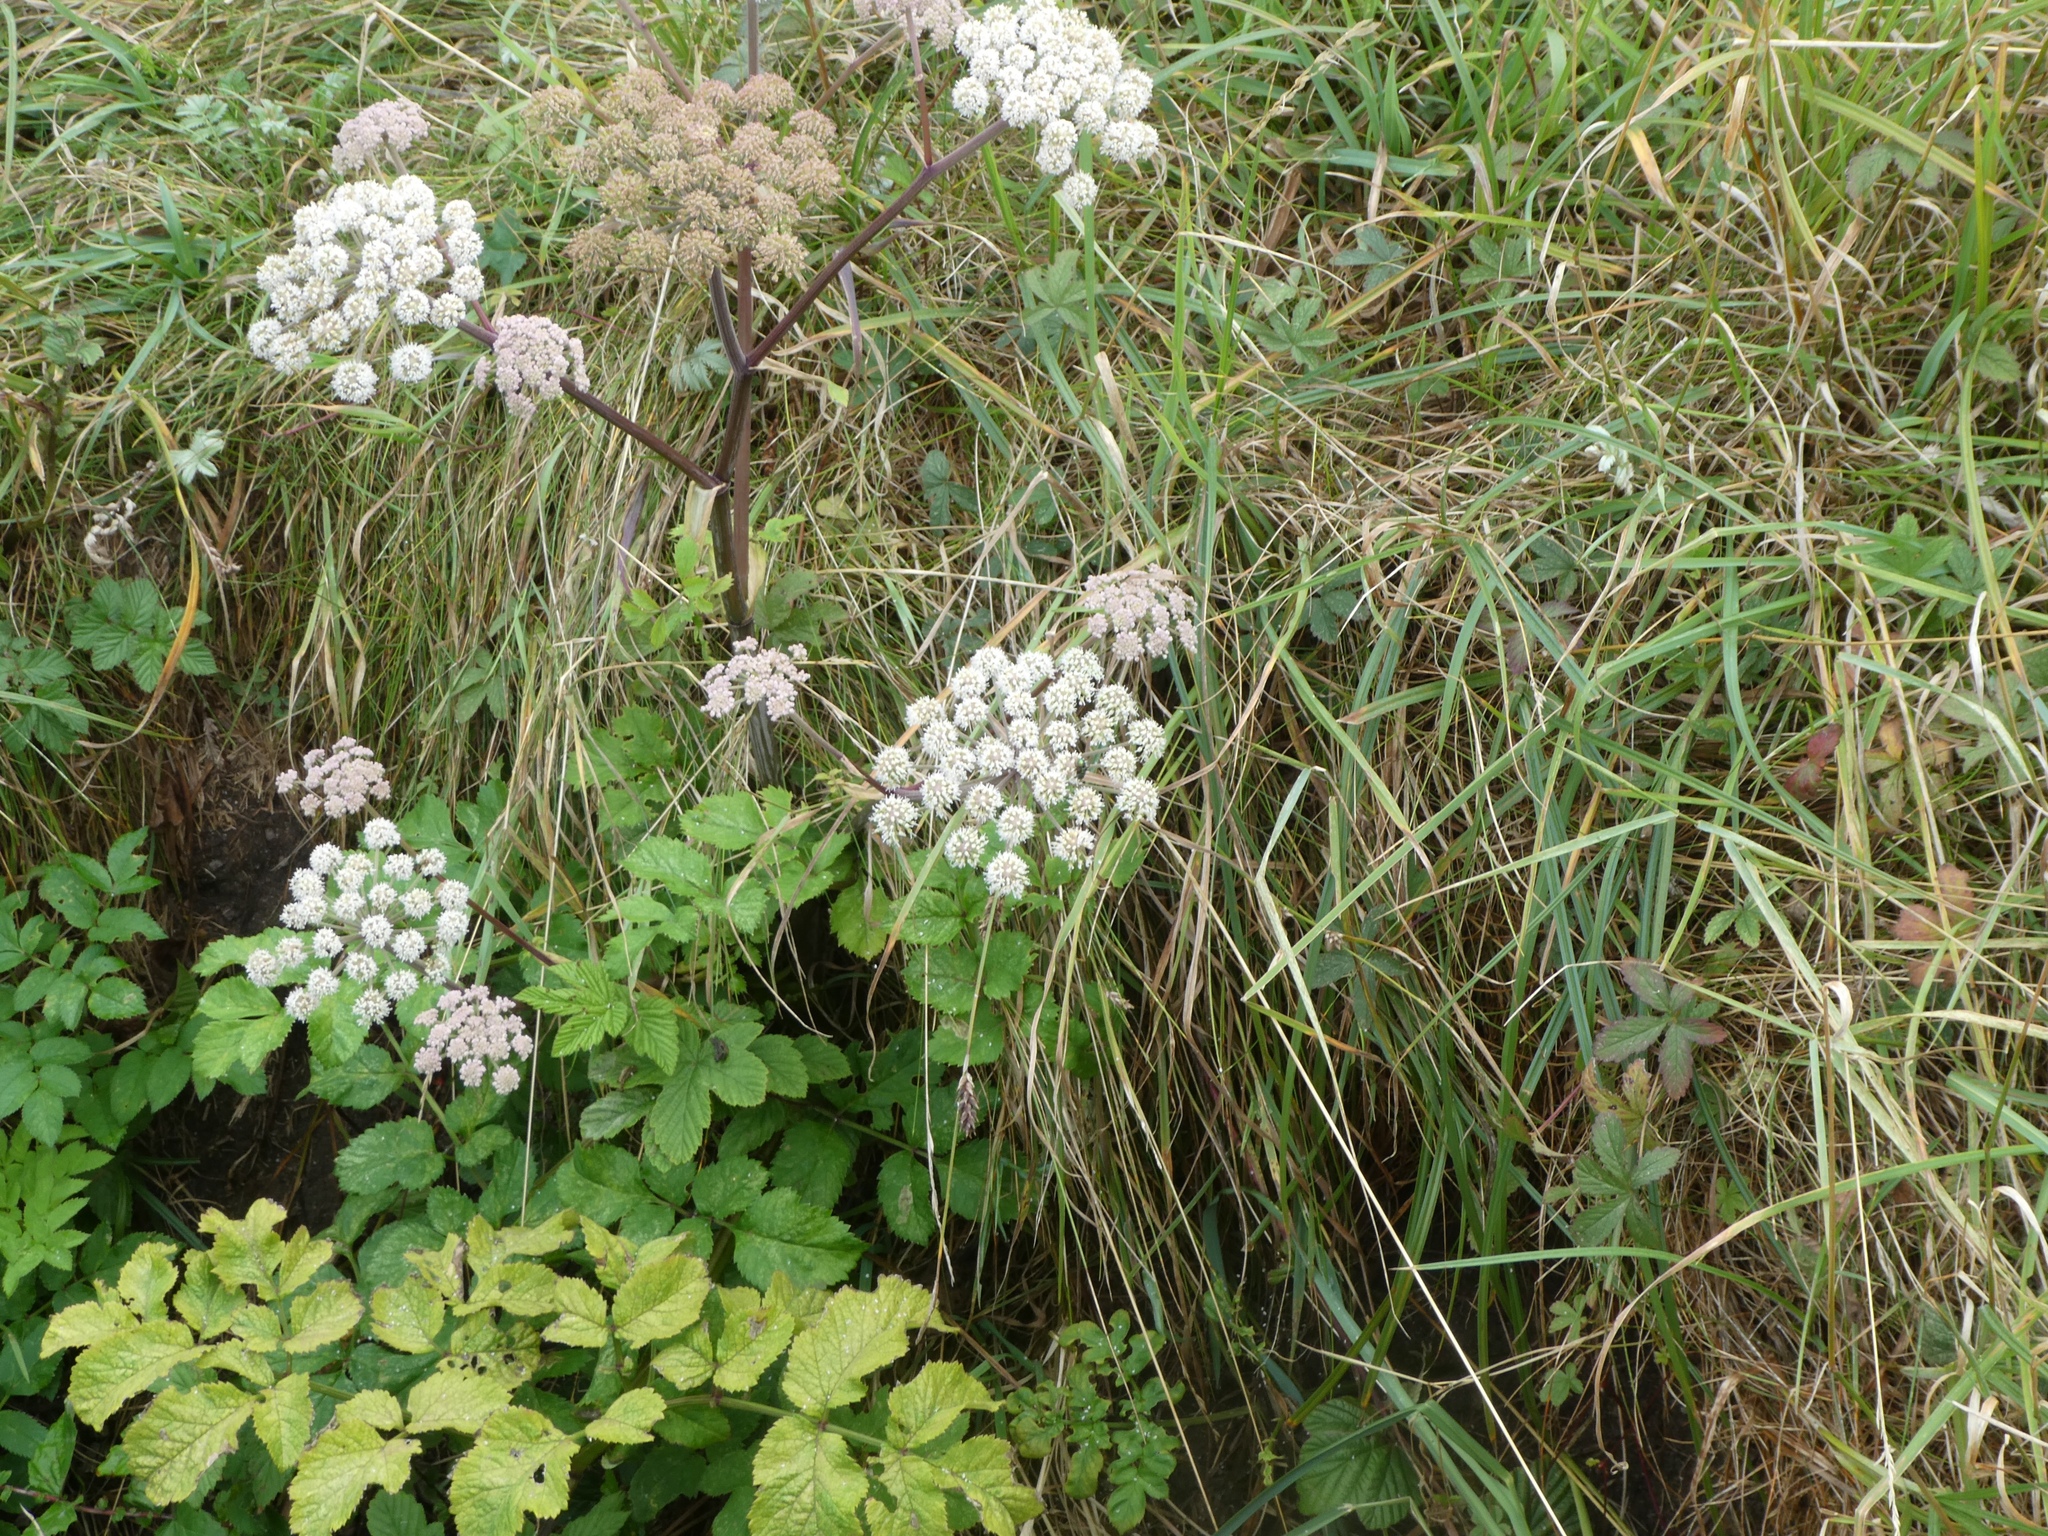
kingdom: Plantae
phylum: Tracheophyta
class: Magnoliopsida
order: Apiales
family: Apiaceae
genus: Angelica
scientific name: Angelica sylvestris
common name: Wild angelica
